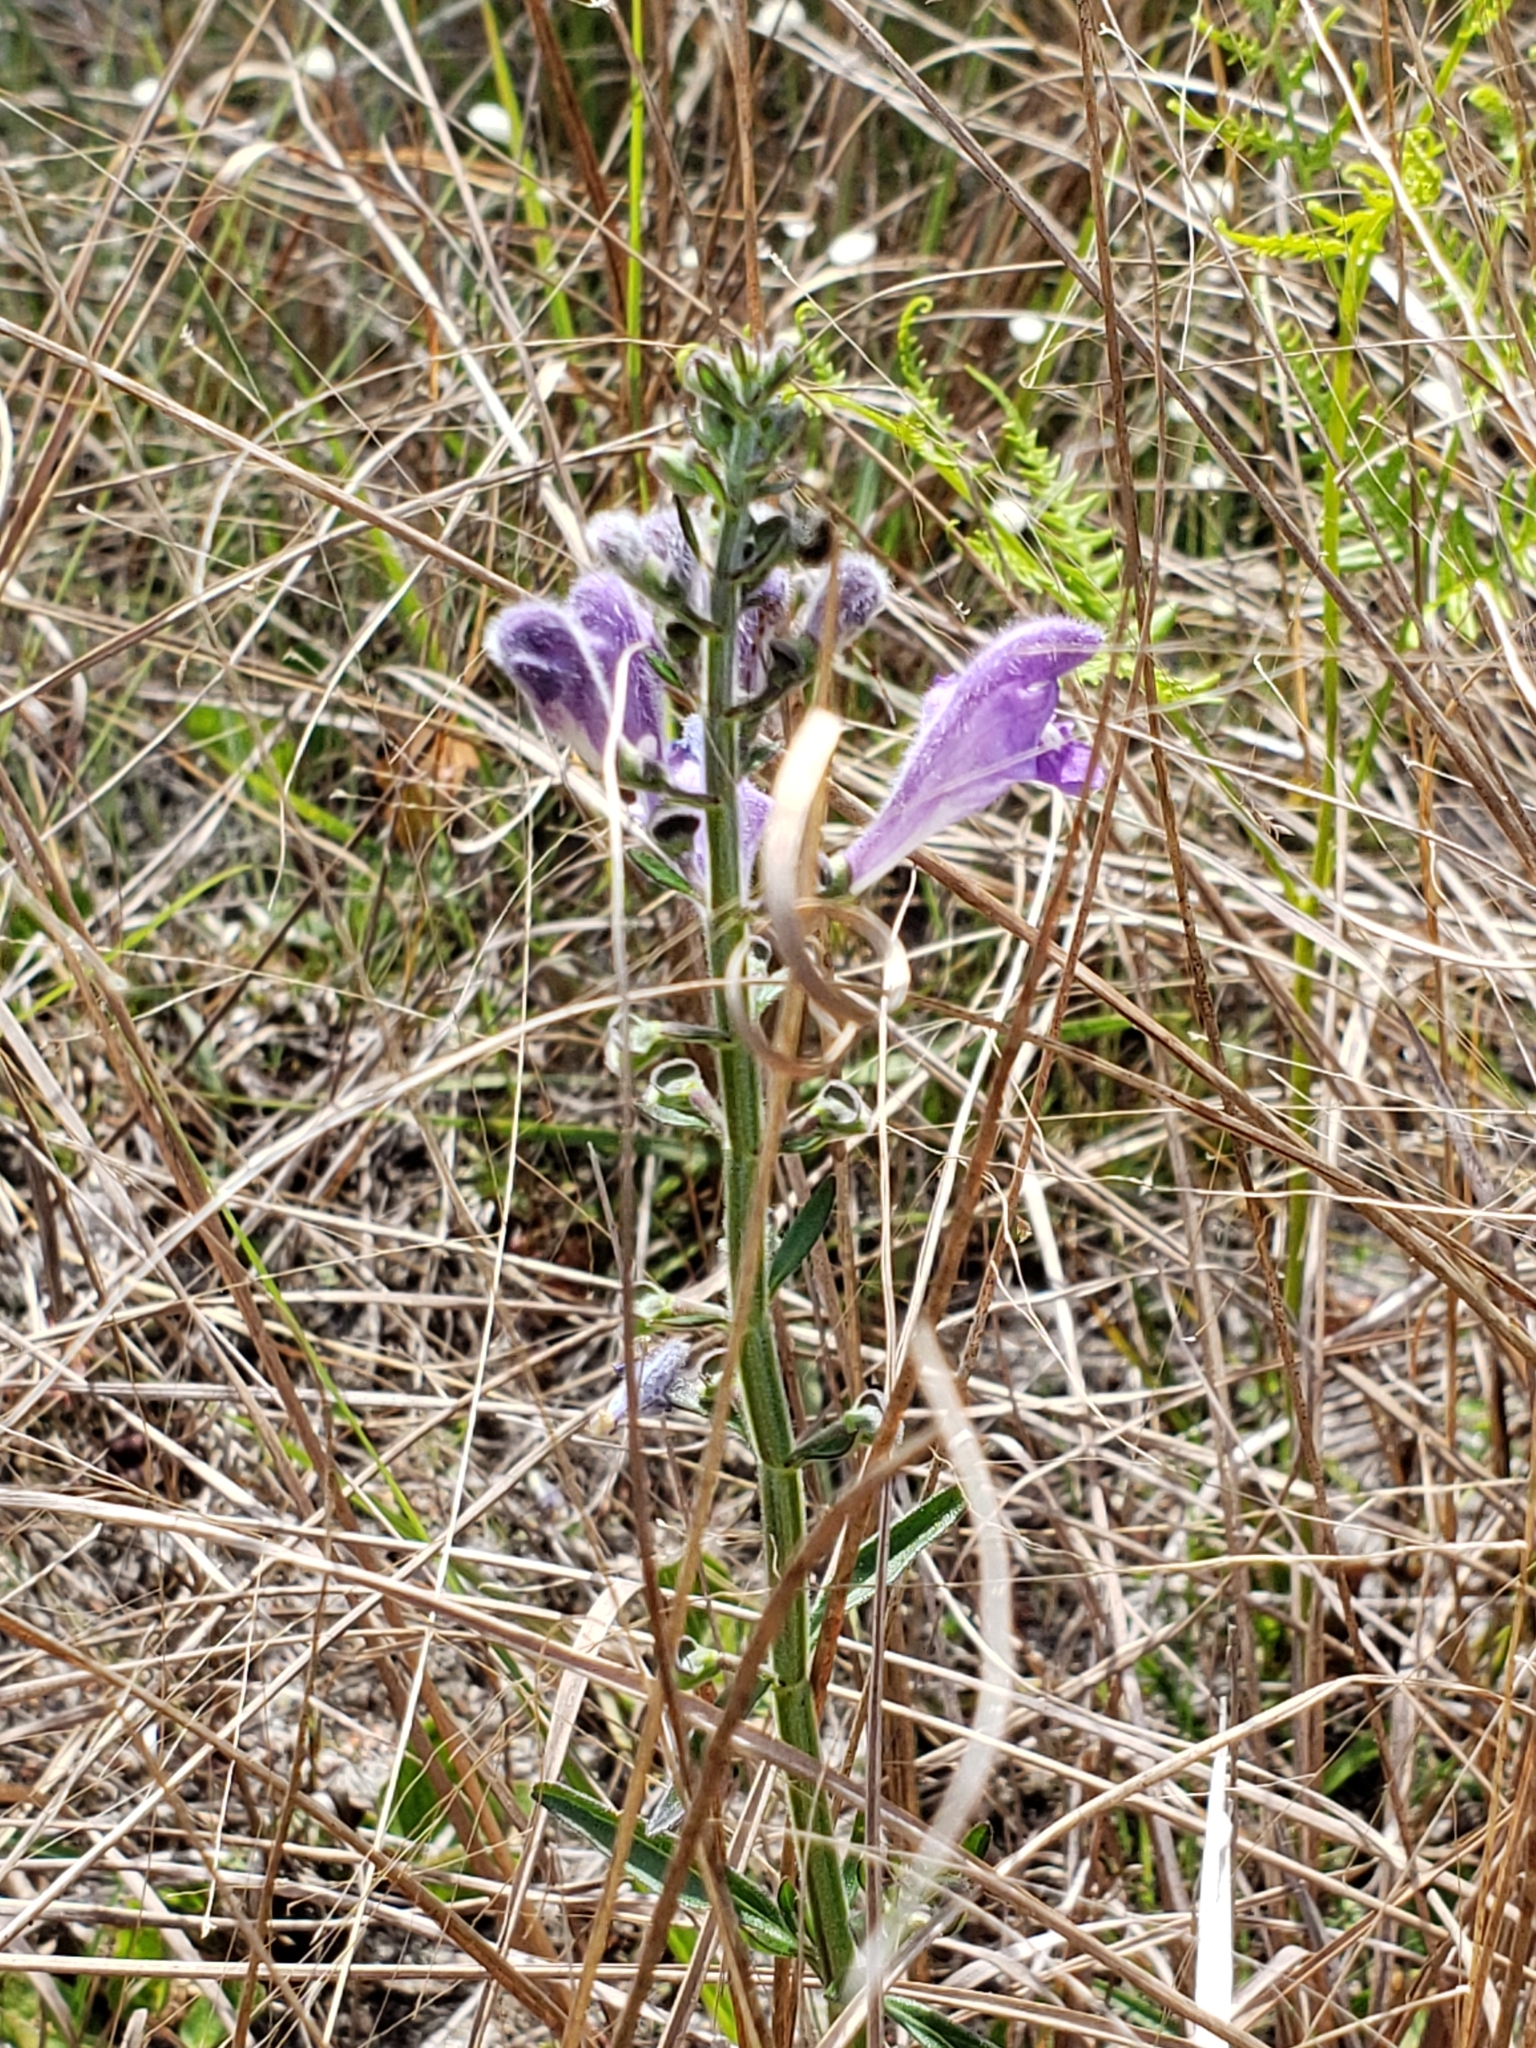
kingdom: Plantae
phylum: Tracheophyta
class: Magnoliopsida
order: Lamiales
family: Lamiaceae
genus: Scutellaria
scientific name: Scutellaria integrifolia
